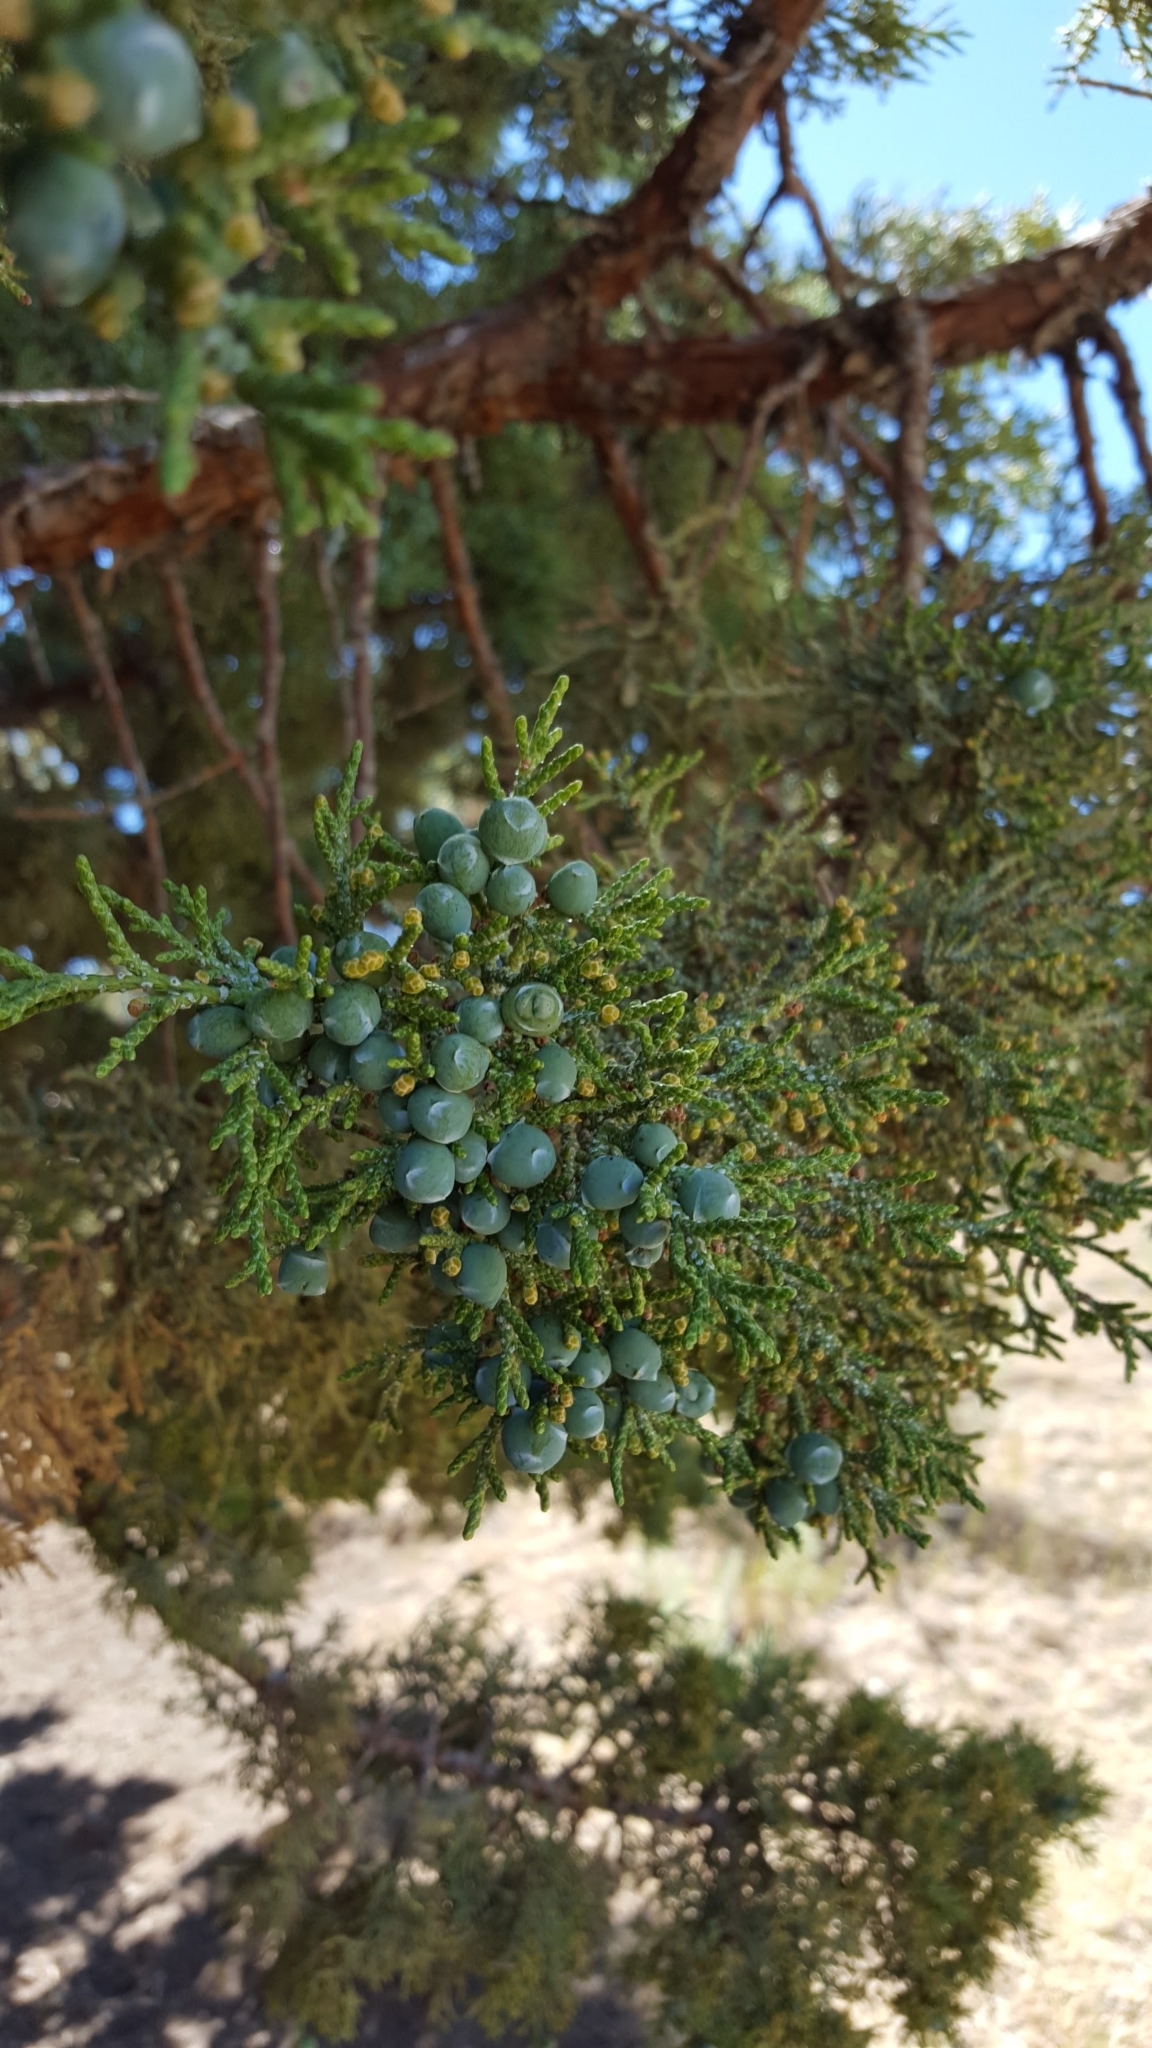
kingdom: Plantae
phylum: Tracheophyta
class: Pinopsida
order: Pinales
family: Cupressaceae
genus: Juniperus
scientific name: Juniperus occidentalis
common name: Western juniper
